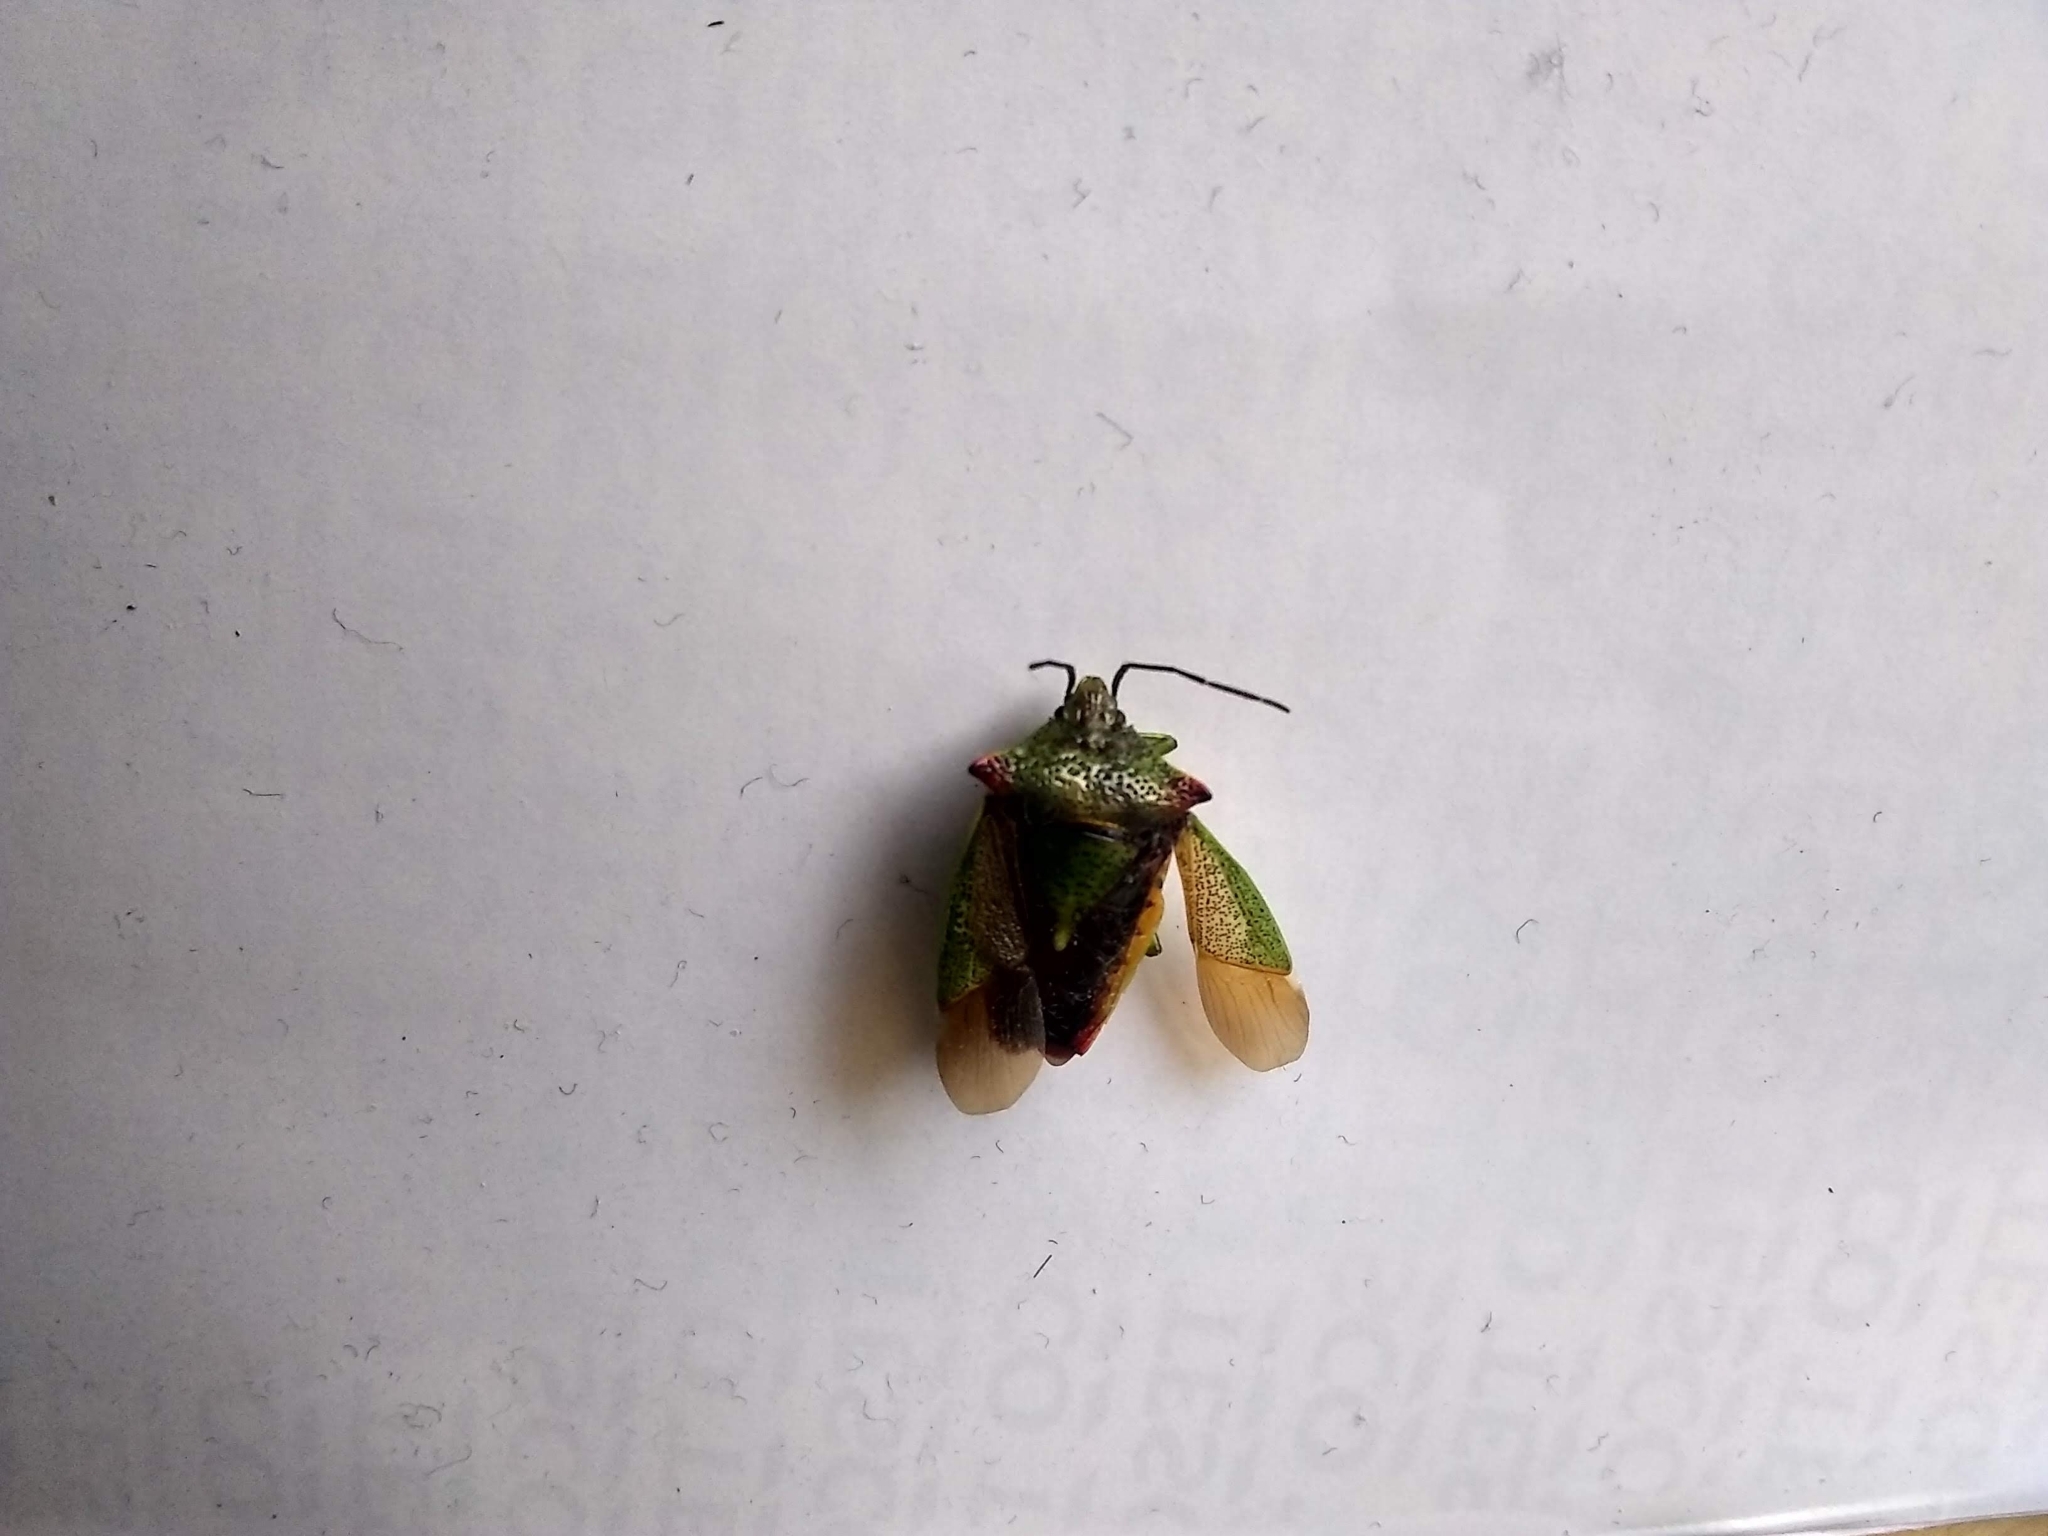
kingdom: Animalia
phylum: Arthropoda
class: Insecta
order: Hemiptera
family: Acanthosomatidae
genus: Acanthosoma
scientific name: Acanthosoma haemorrhoidale
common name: Hawthorn shieldbug
